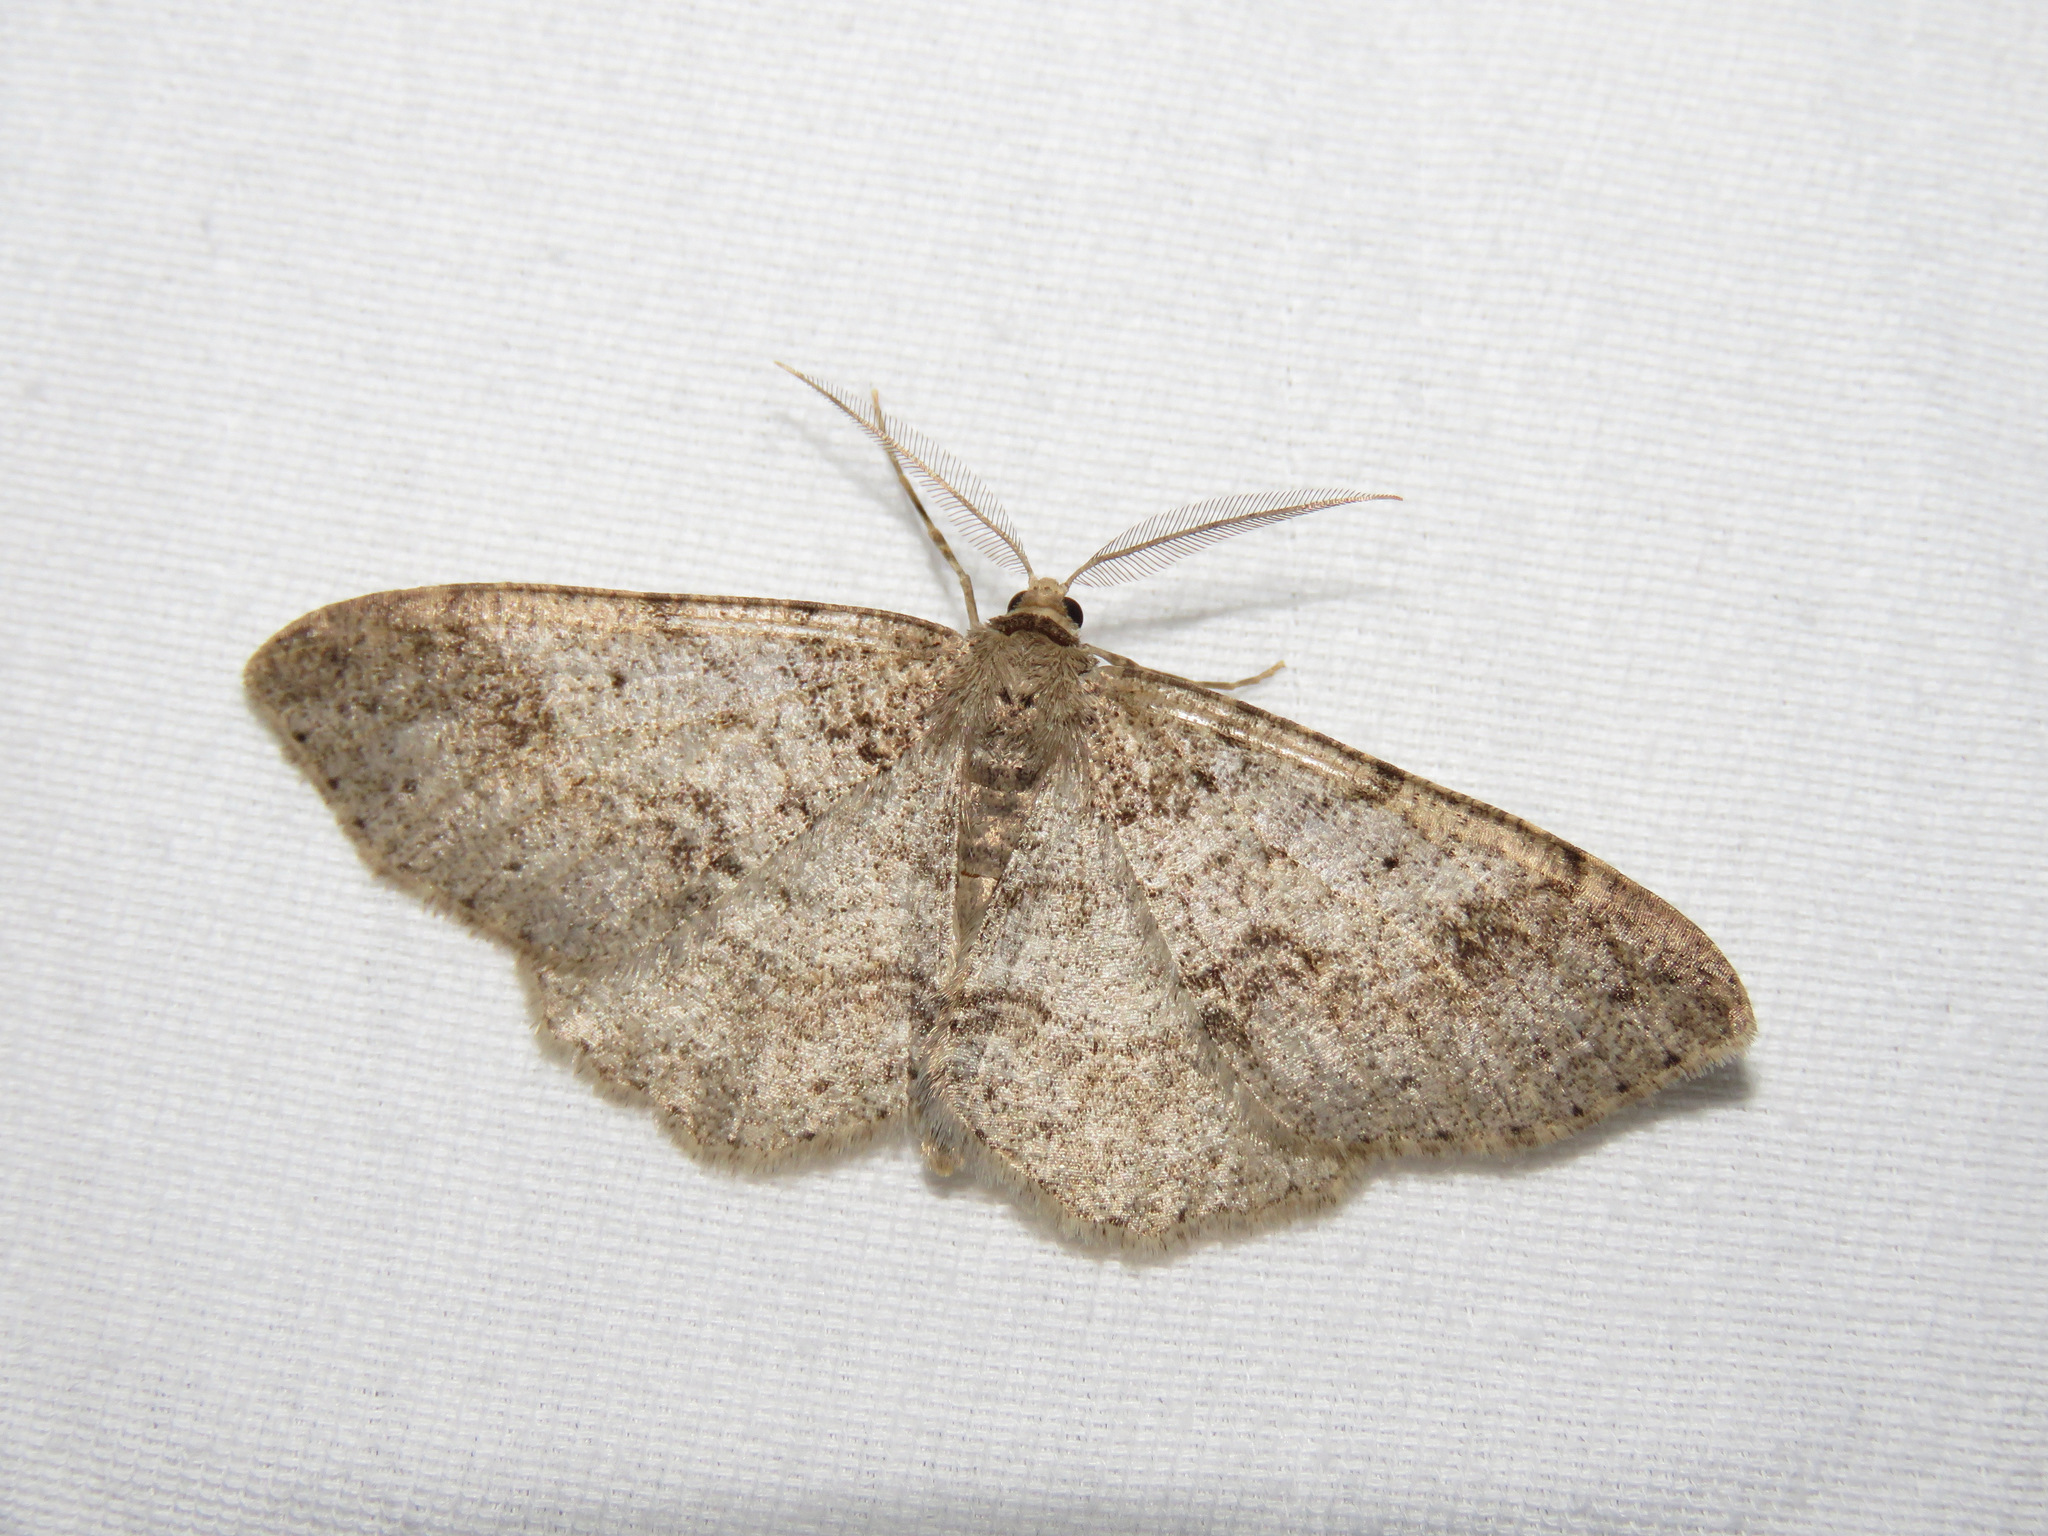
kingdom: Animalia
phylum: Arthropoda
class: Insecta
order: Lepidoptera
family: Geometridae
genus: Melanolophia
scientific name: Melanolophia imitata
